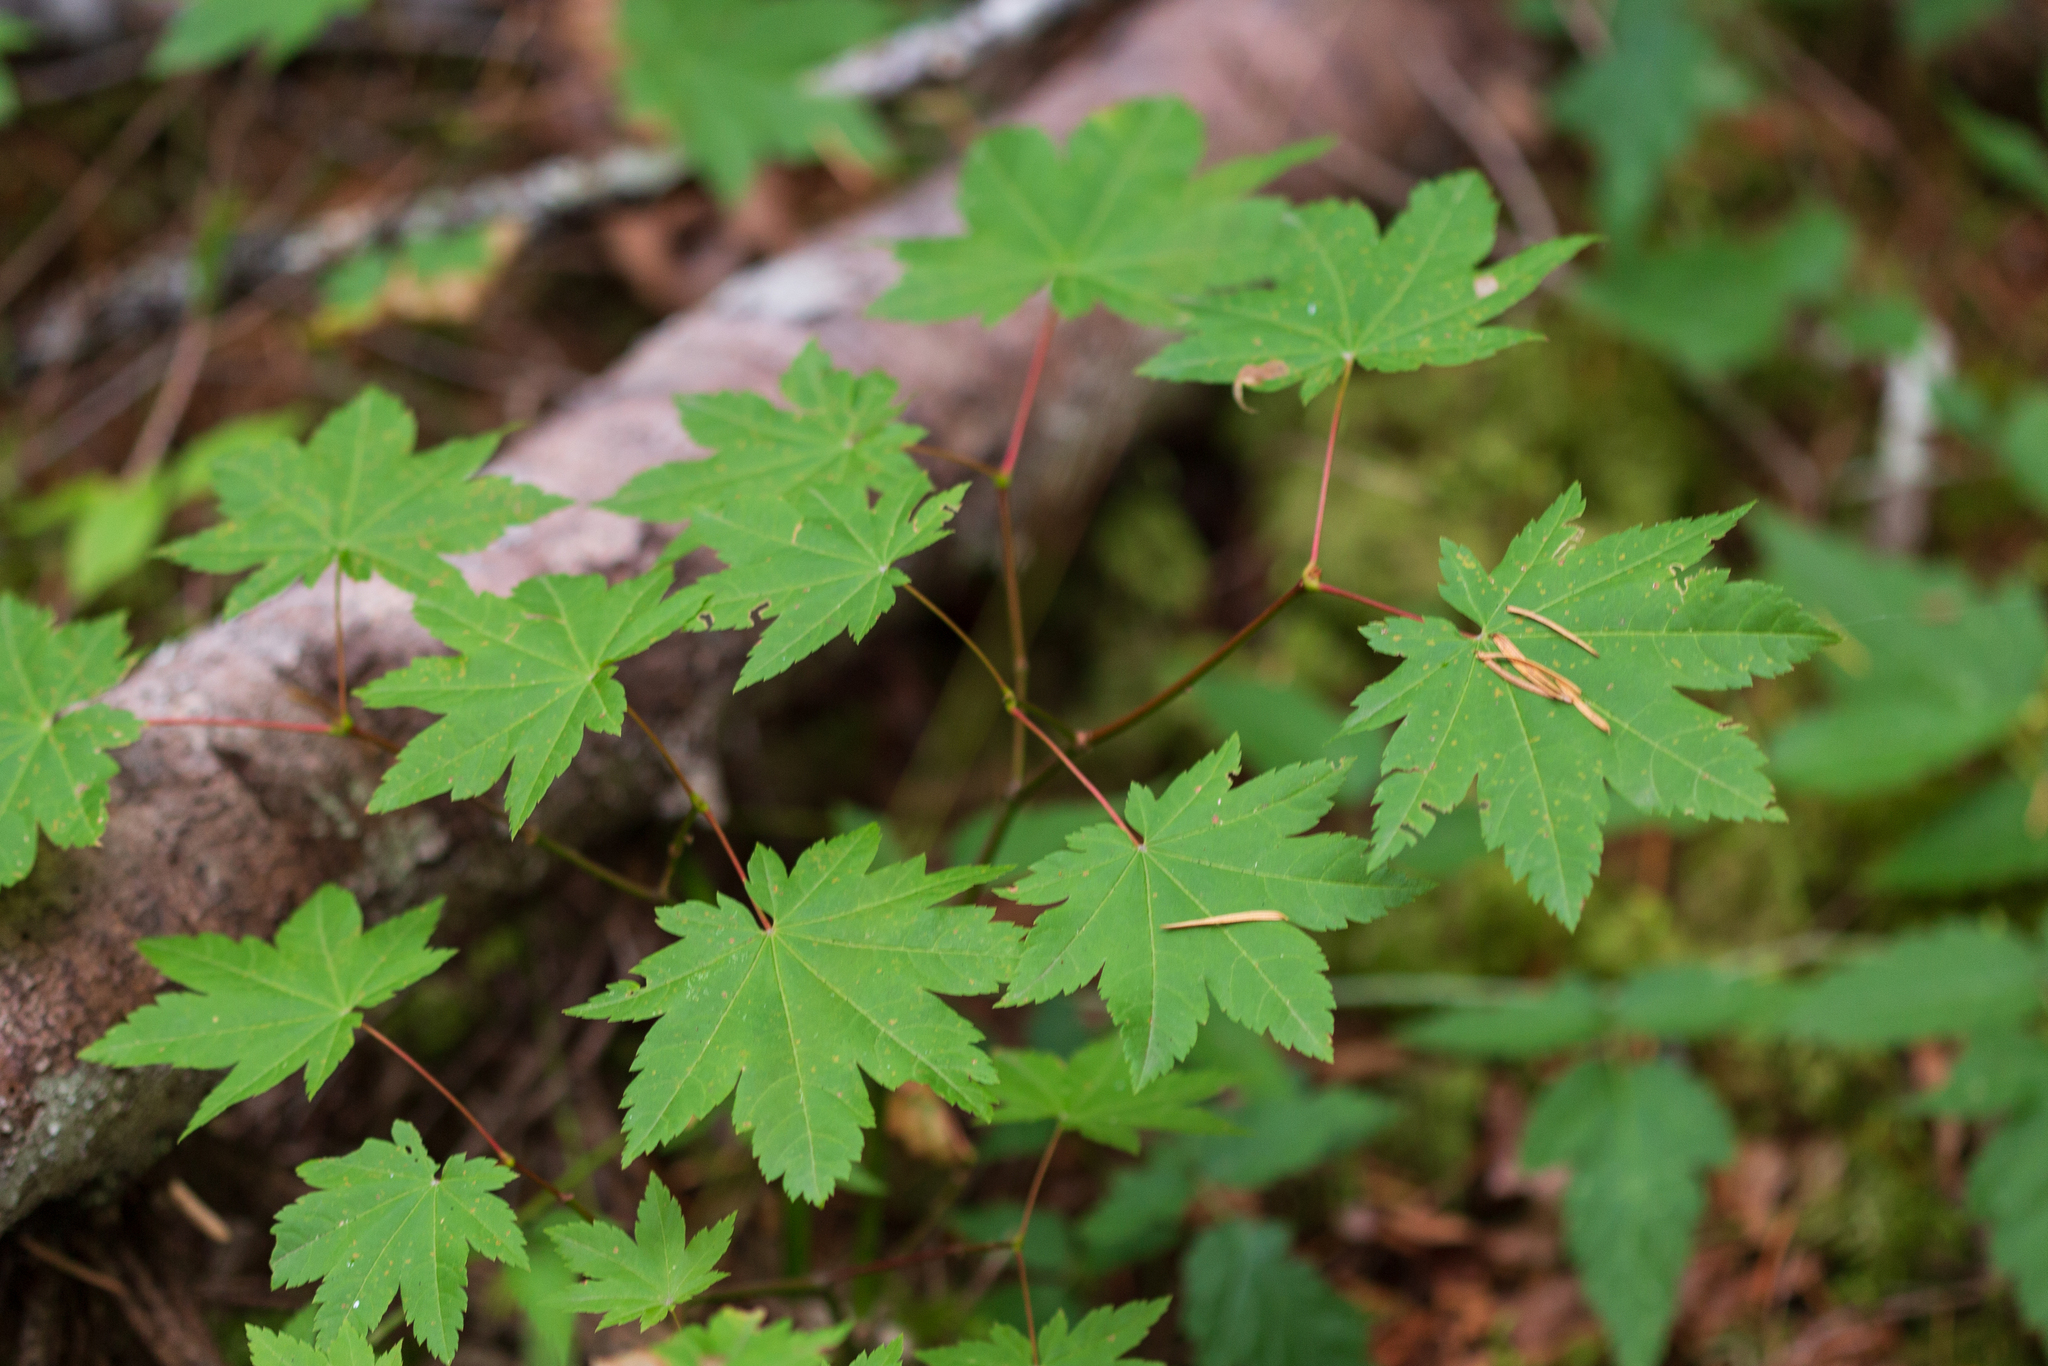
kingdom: Plantae
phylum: Tracheophyta
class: Magnoliopsida
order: Sapindales
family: Sapindaceae
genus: Acer
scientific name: Acer circinatum
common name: Vine maple
